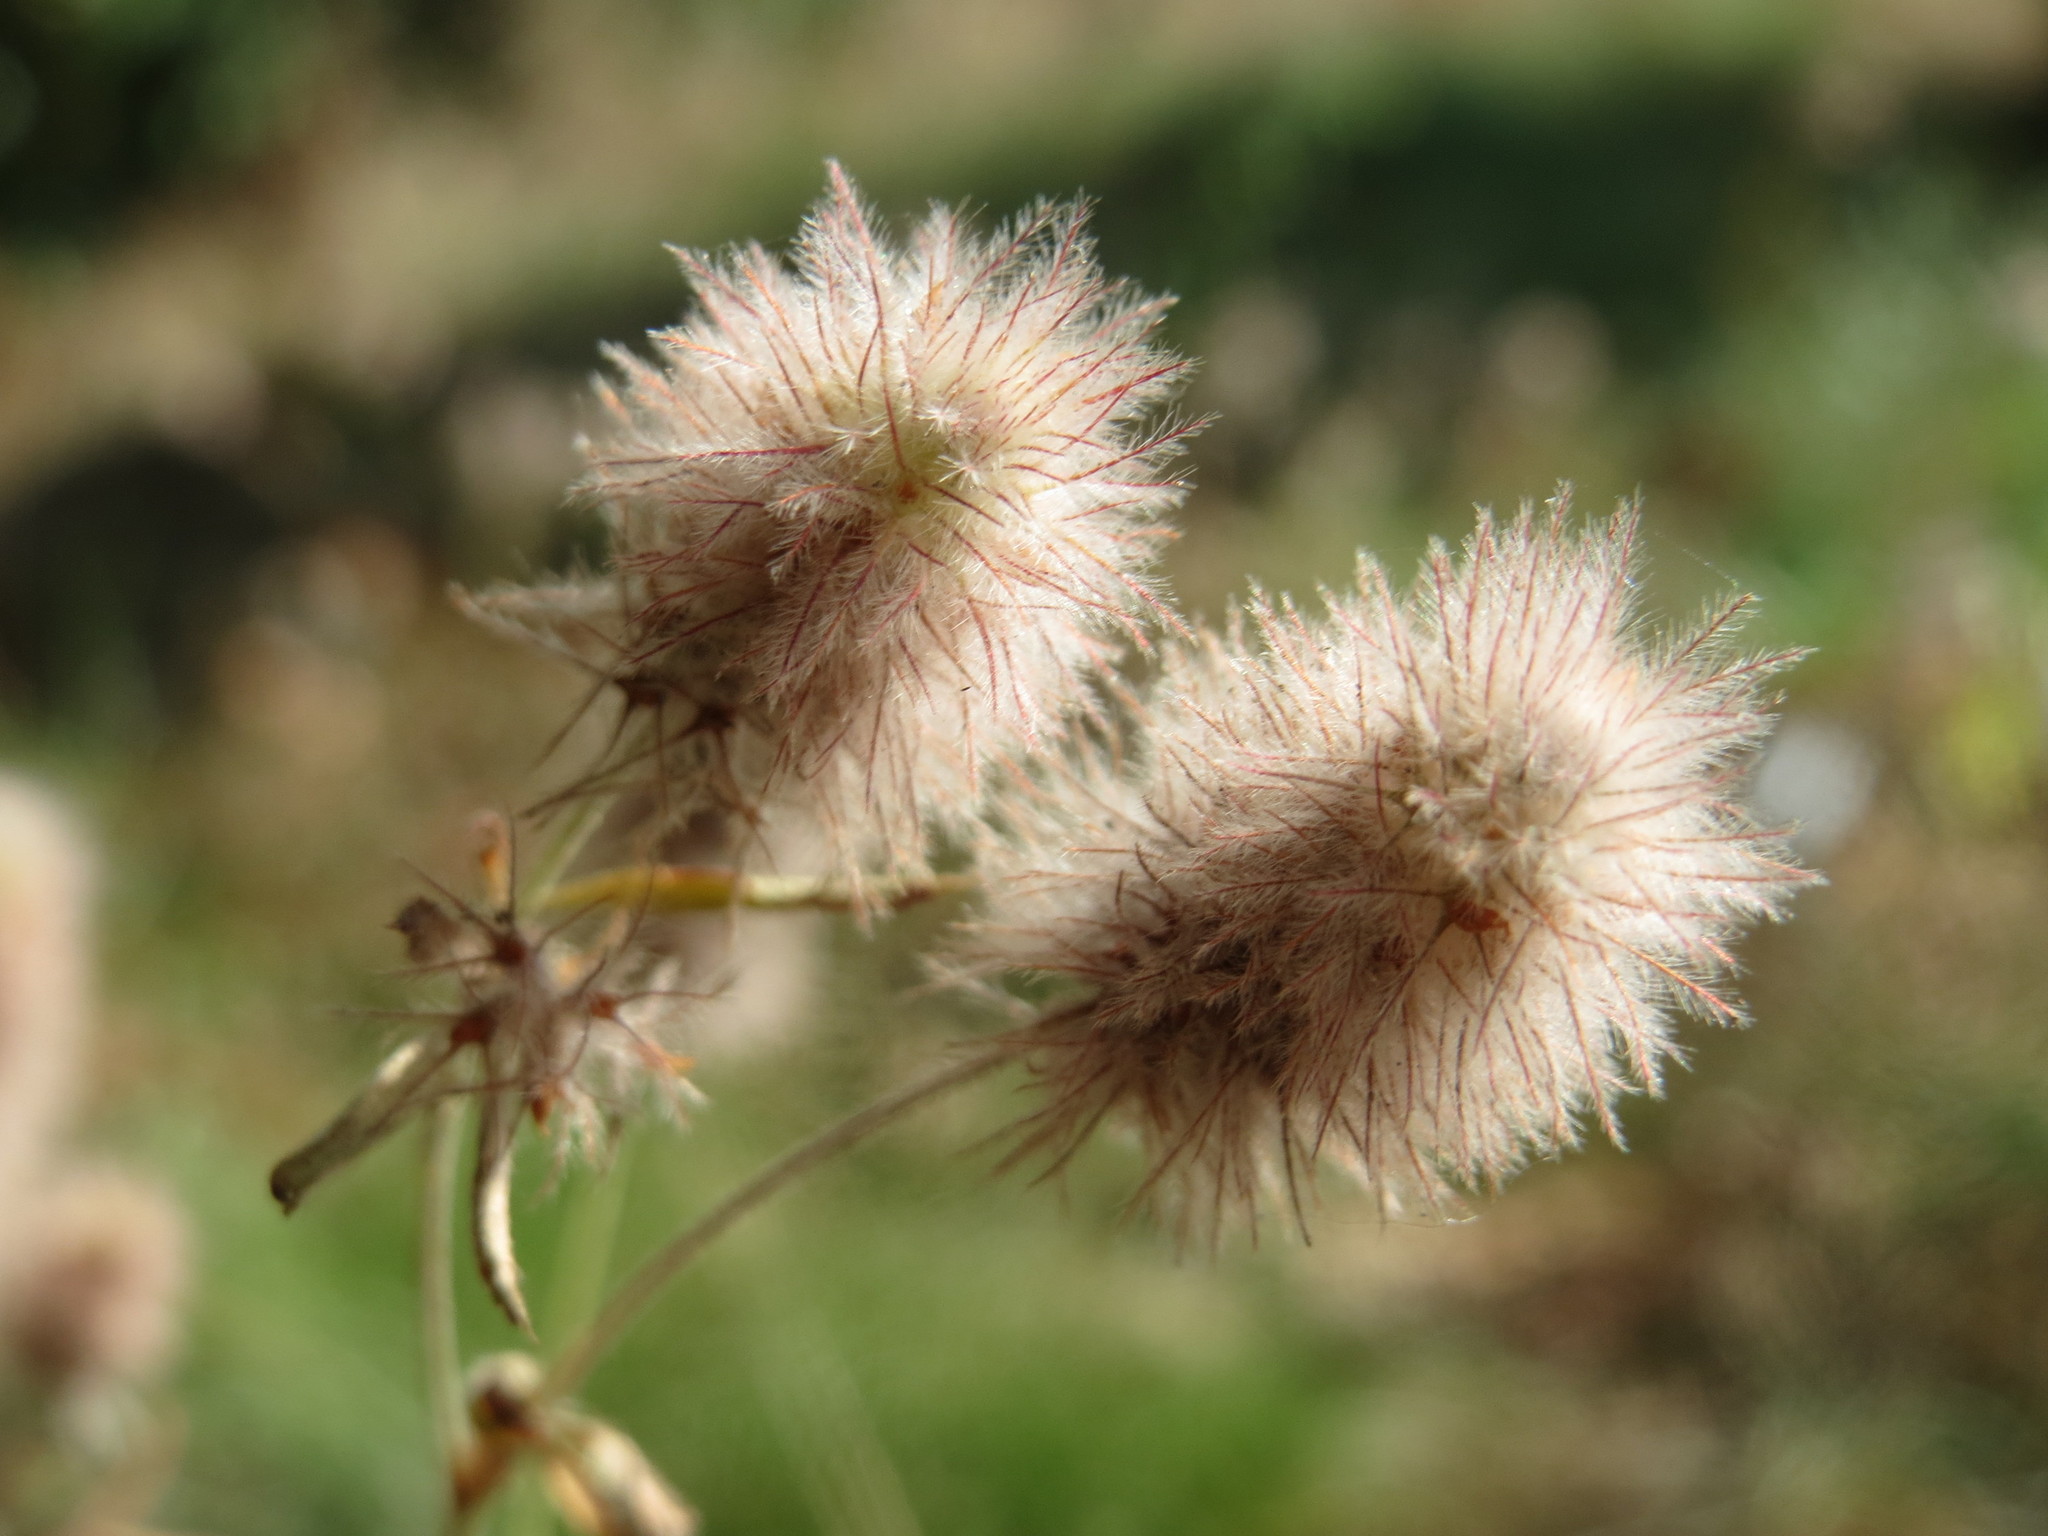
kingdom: Plantae
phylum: Tracheophyta
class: Magnoliopsida
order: Fabales
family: Fabaceae
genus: Trifolium
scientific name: Trifolium arvense
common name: Hare's-foot clover
